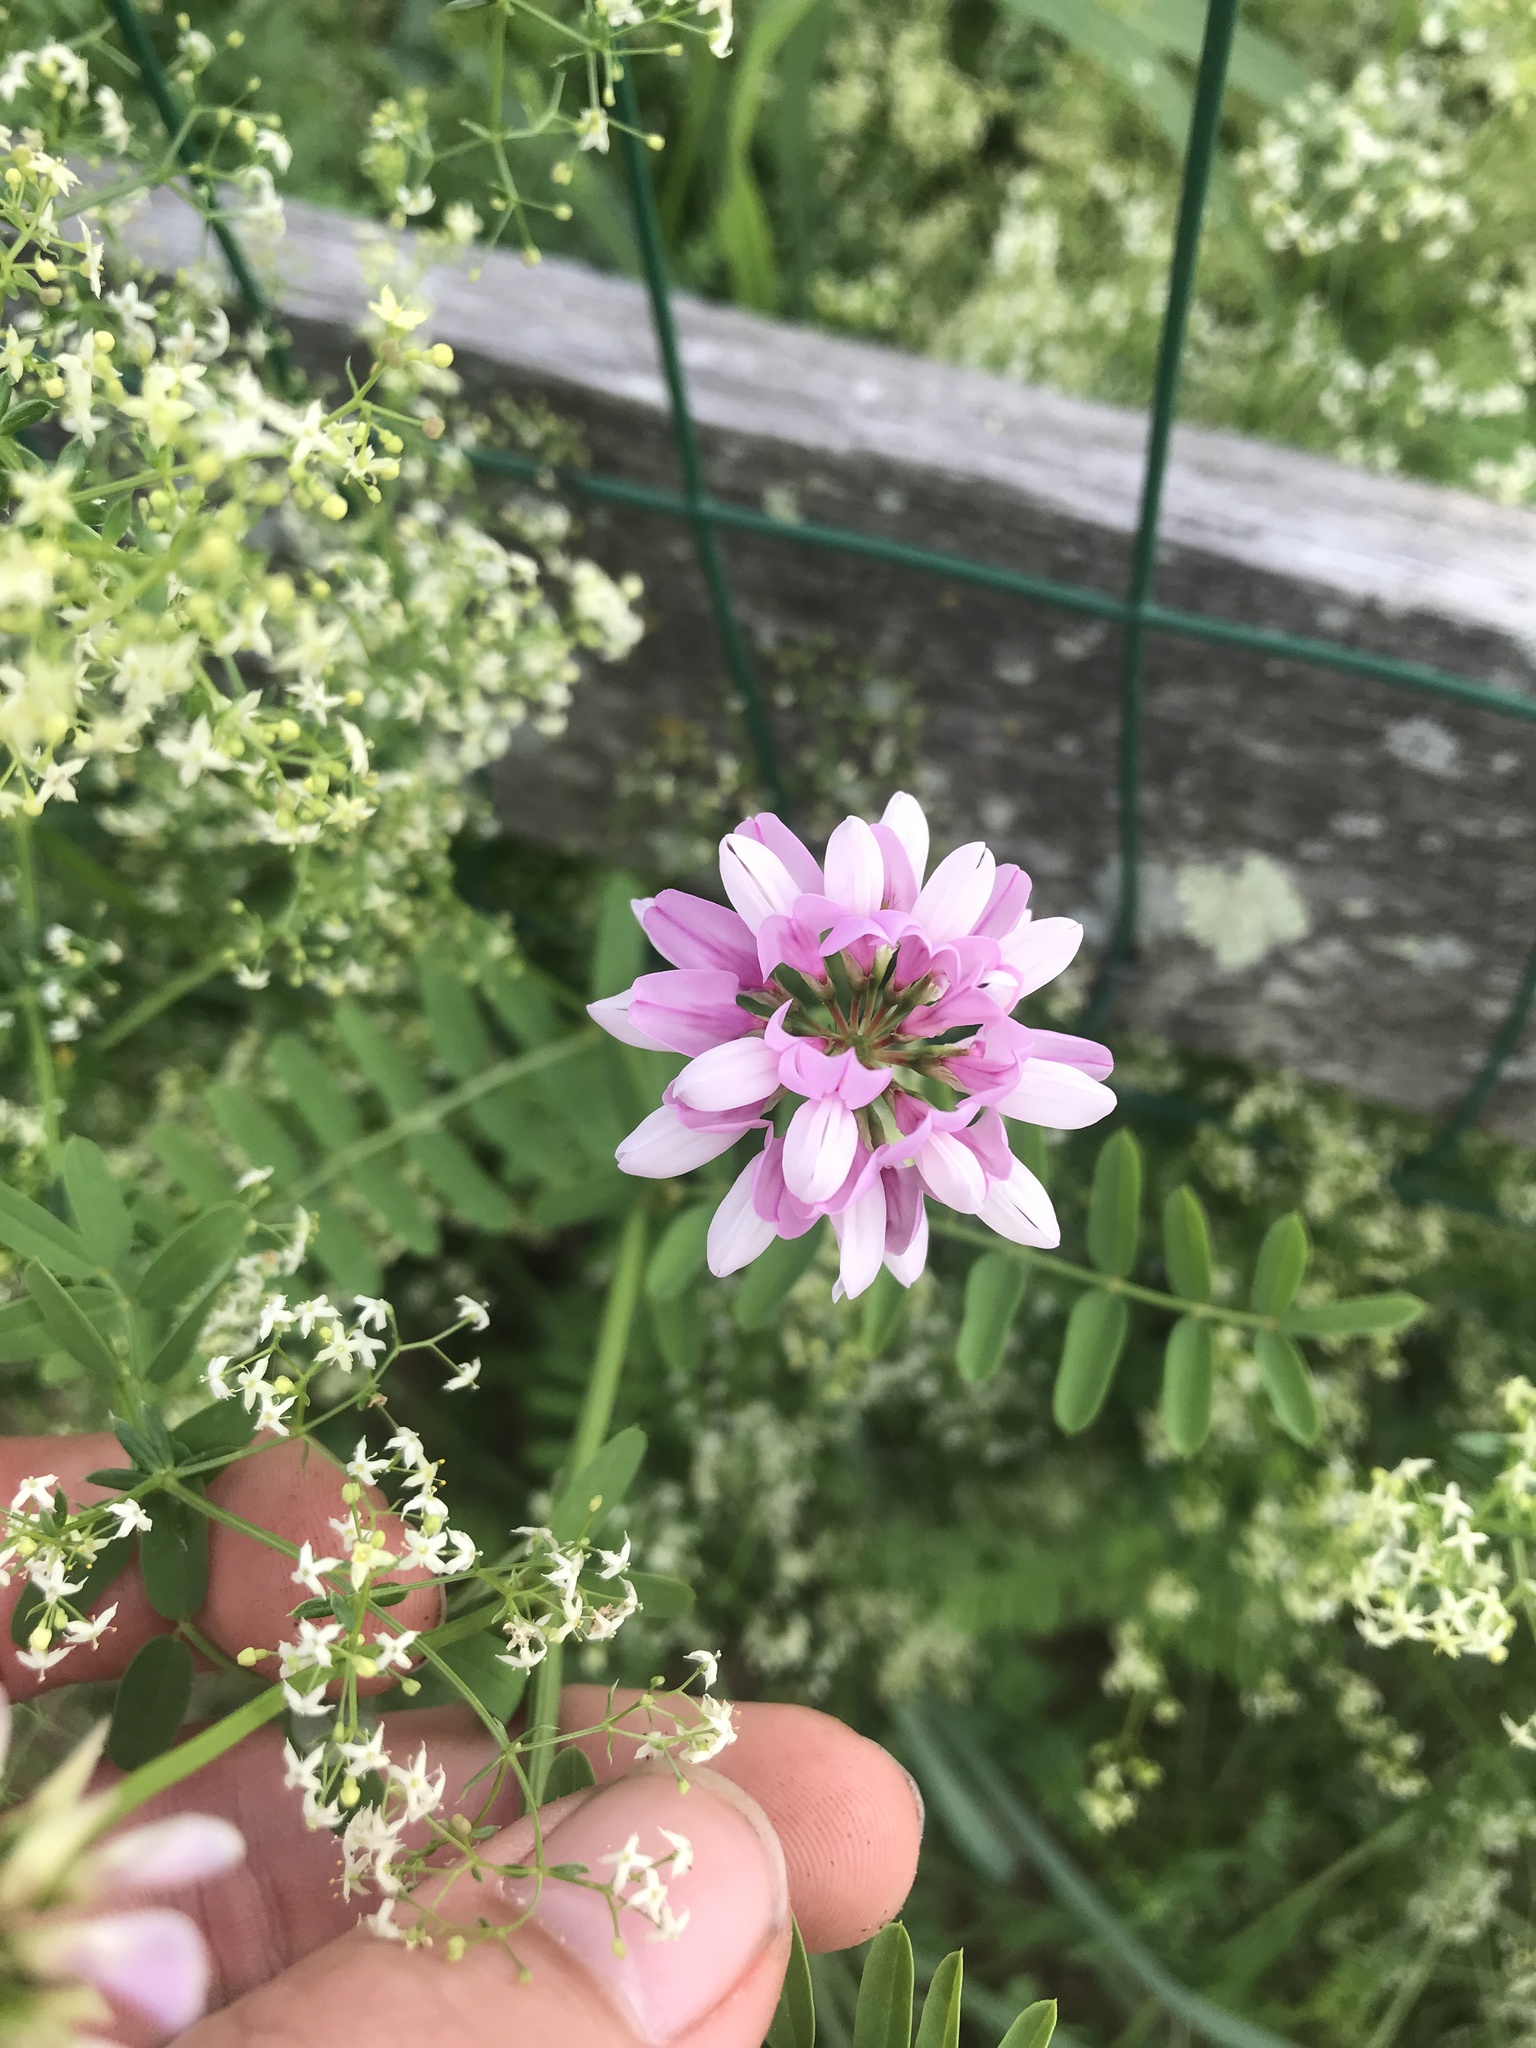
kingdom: Plantae
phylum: Tracheophyta
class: Magnoliopsida
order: Fabales
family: Fabaceae
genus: Coronilla
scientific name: Coronilla varia
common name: Crownvetch
